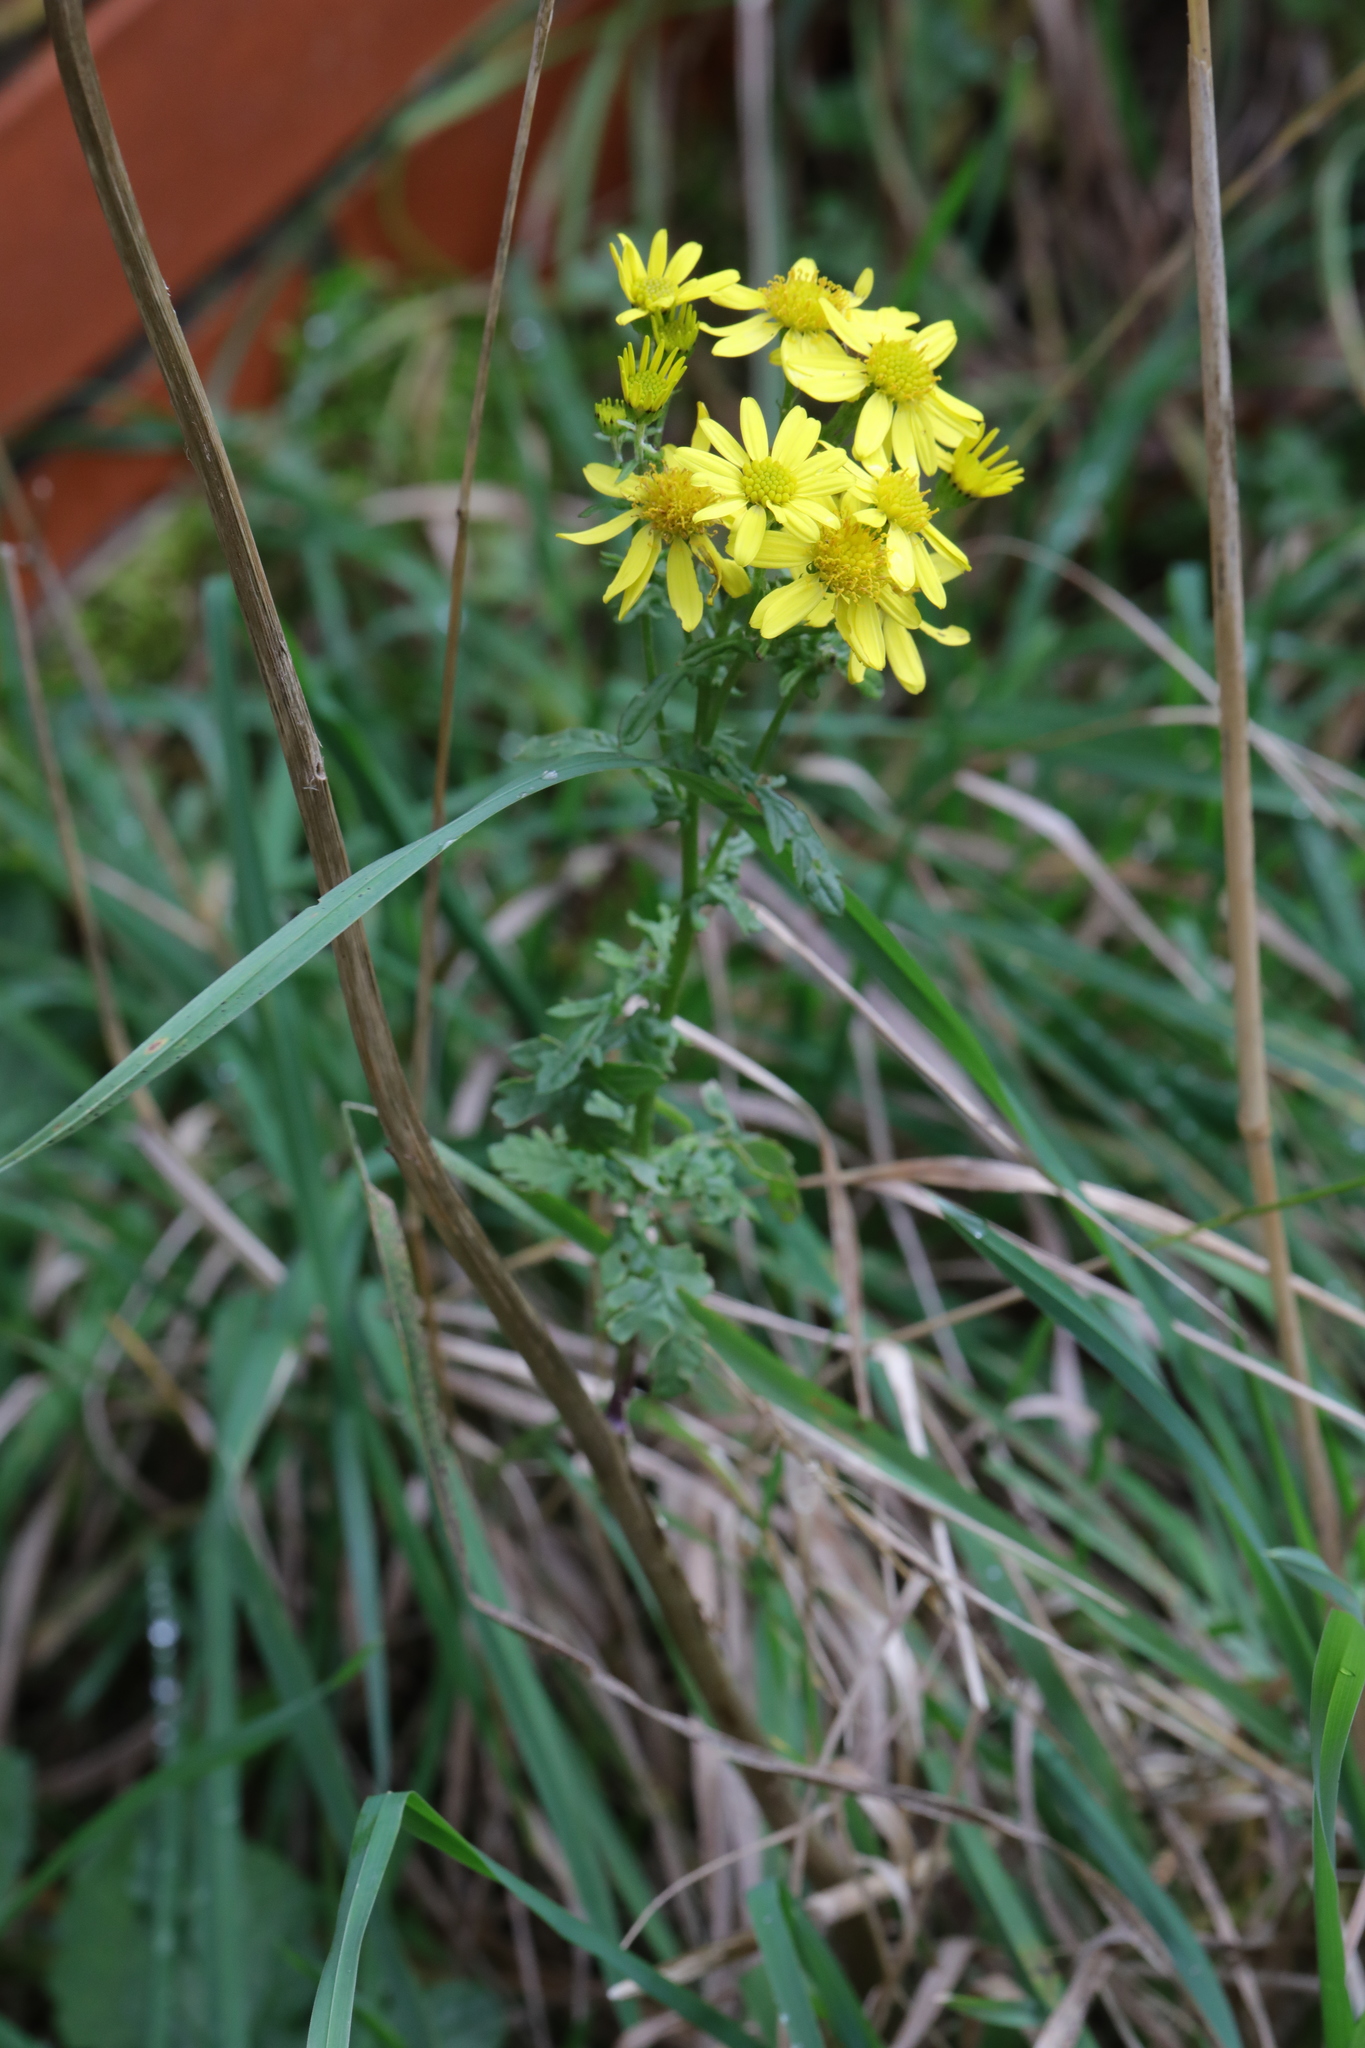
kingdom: Plantae
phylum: Tracheophyta
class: Magnoliopsida
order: Asterales
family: Asteraceae
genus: Jacobaea
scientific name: Jacobaea vulgaris
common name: Stinking willie
